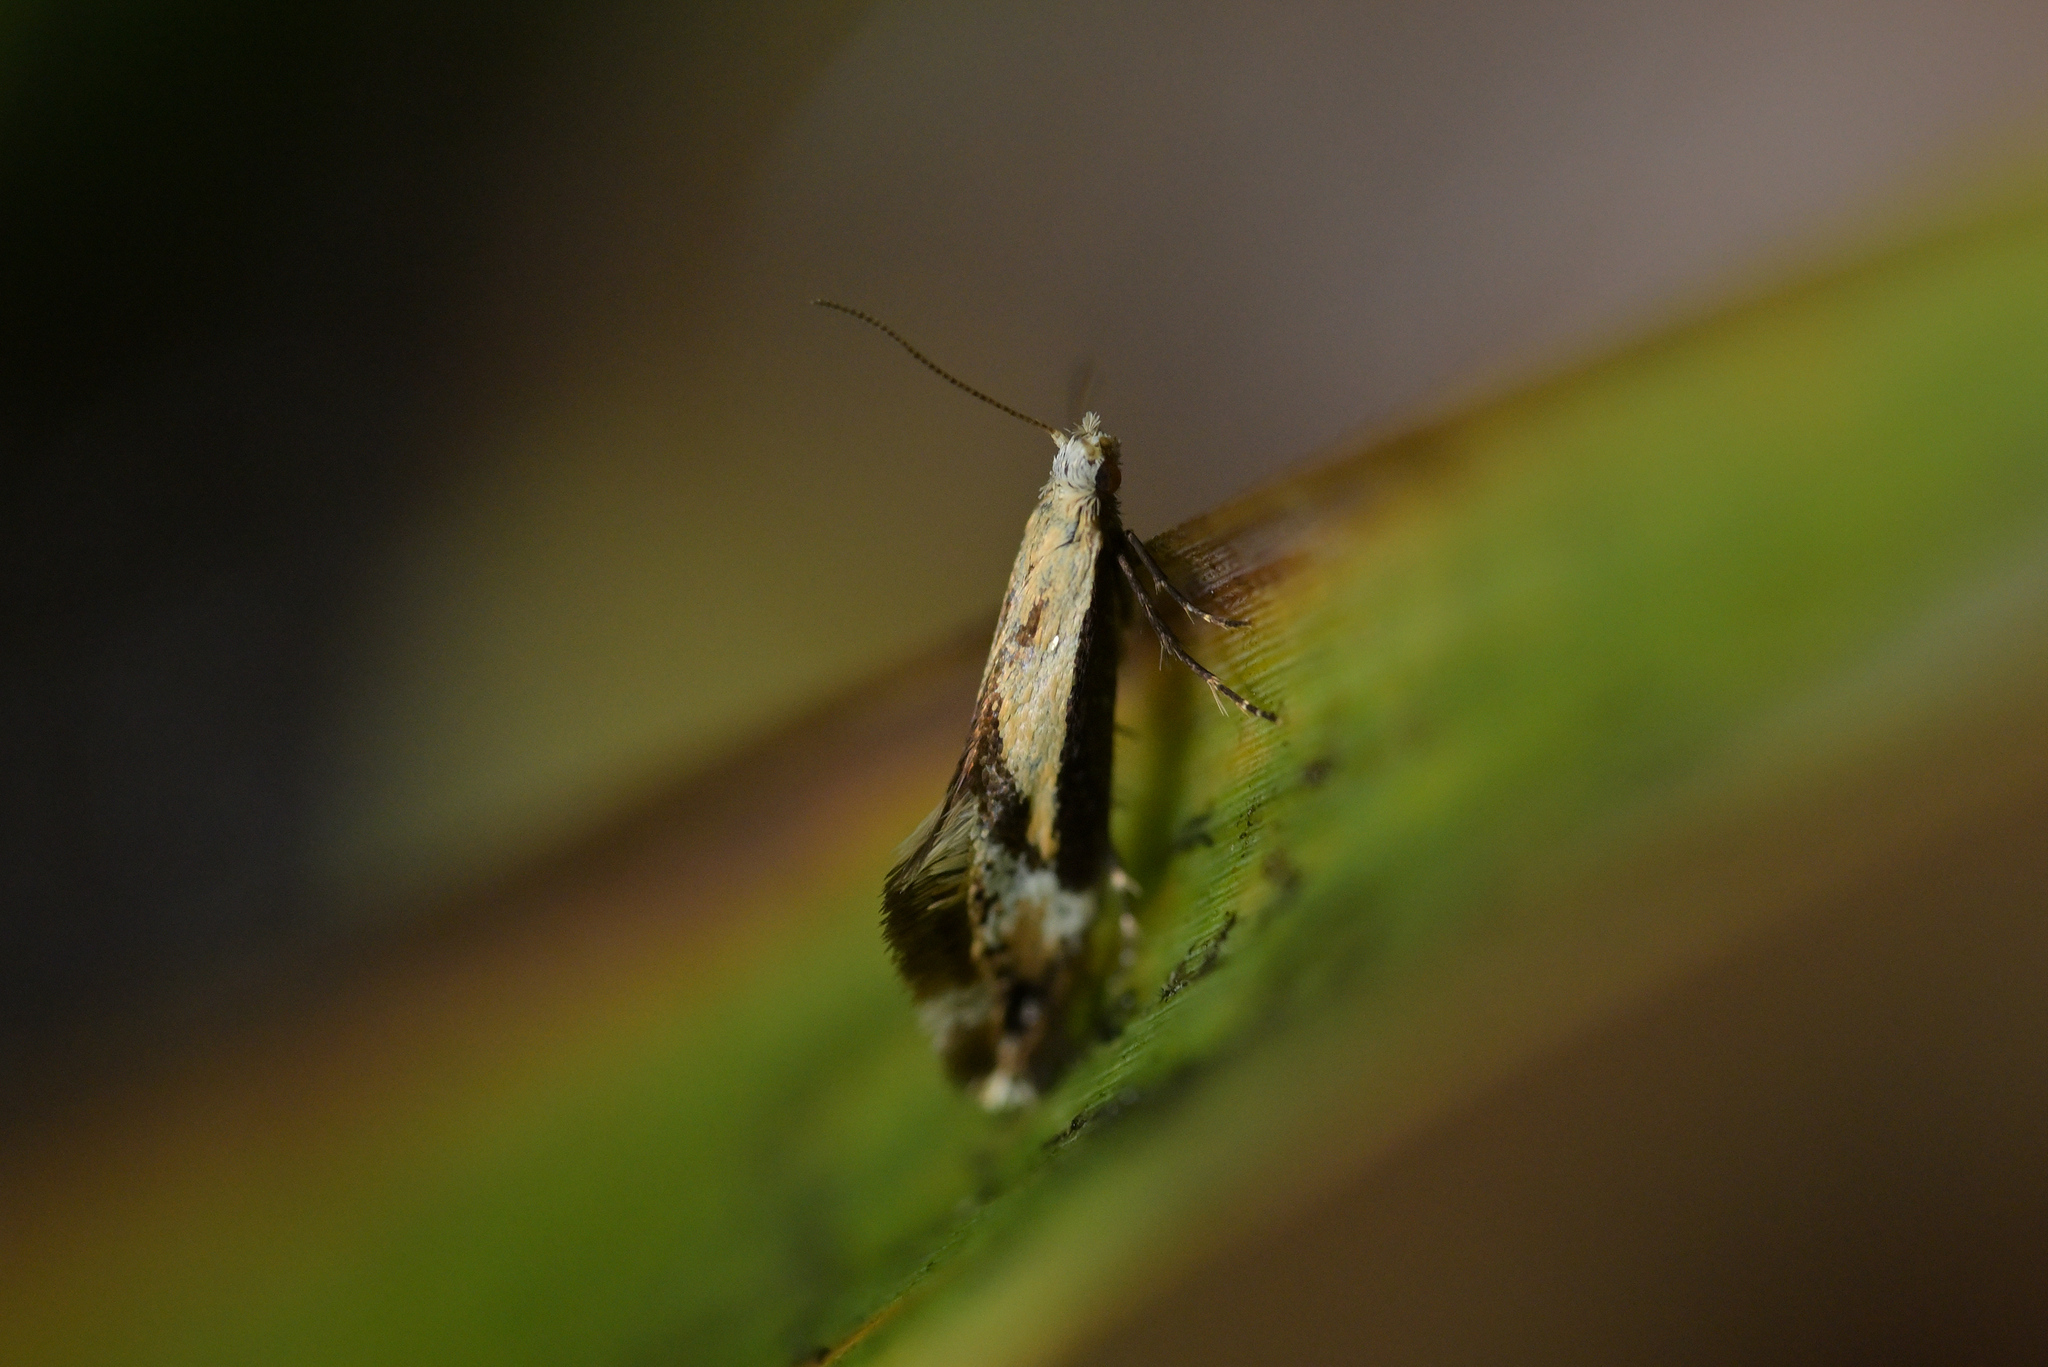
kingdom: Animalia
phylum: Arthropoda
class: Insecta
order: Lepidoptera
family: Mnesarchaeidae
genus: Mnesarchella
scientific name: Mnesarchella loxoscia
